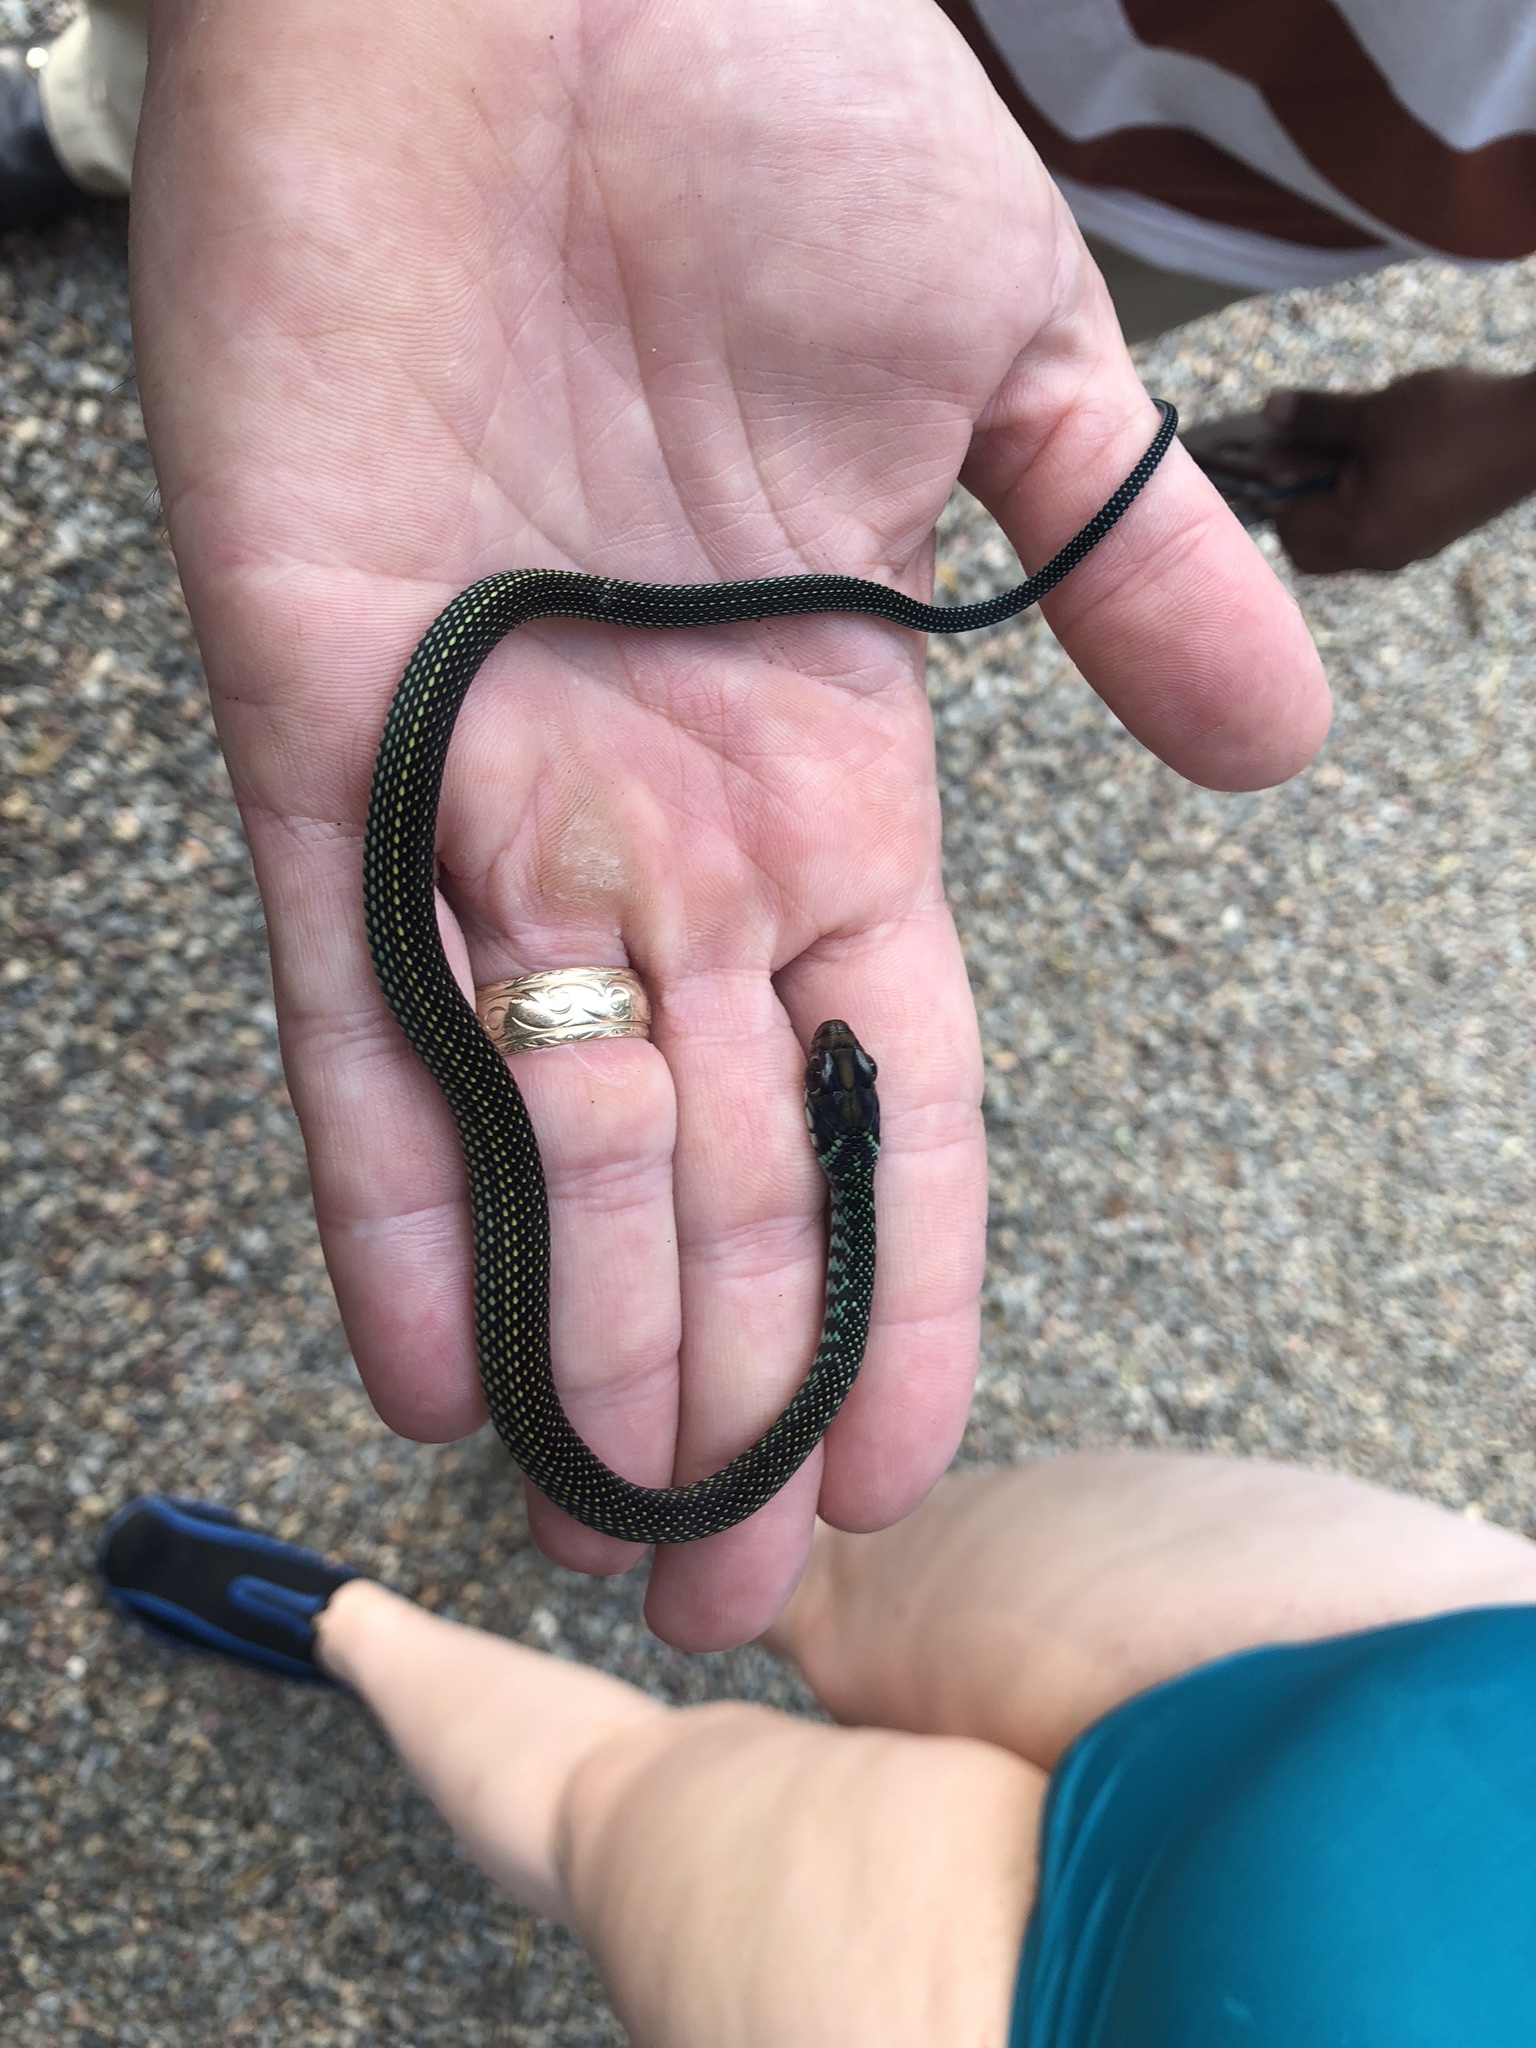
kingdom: Animalia
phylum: Chordata
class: Squamata
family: Colubridae
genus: Drymobius
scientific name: Drymobius margaritiferus
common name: Central american speckled racer
